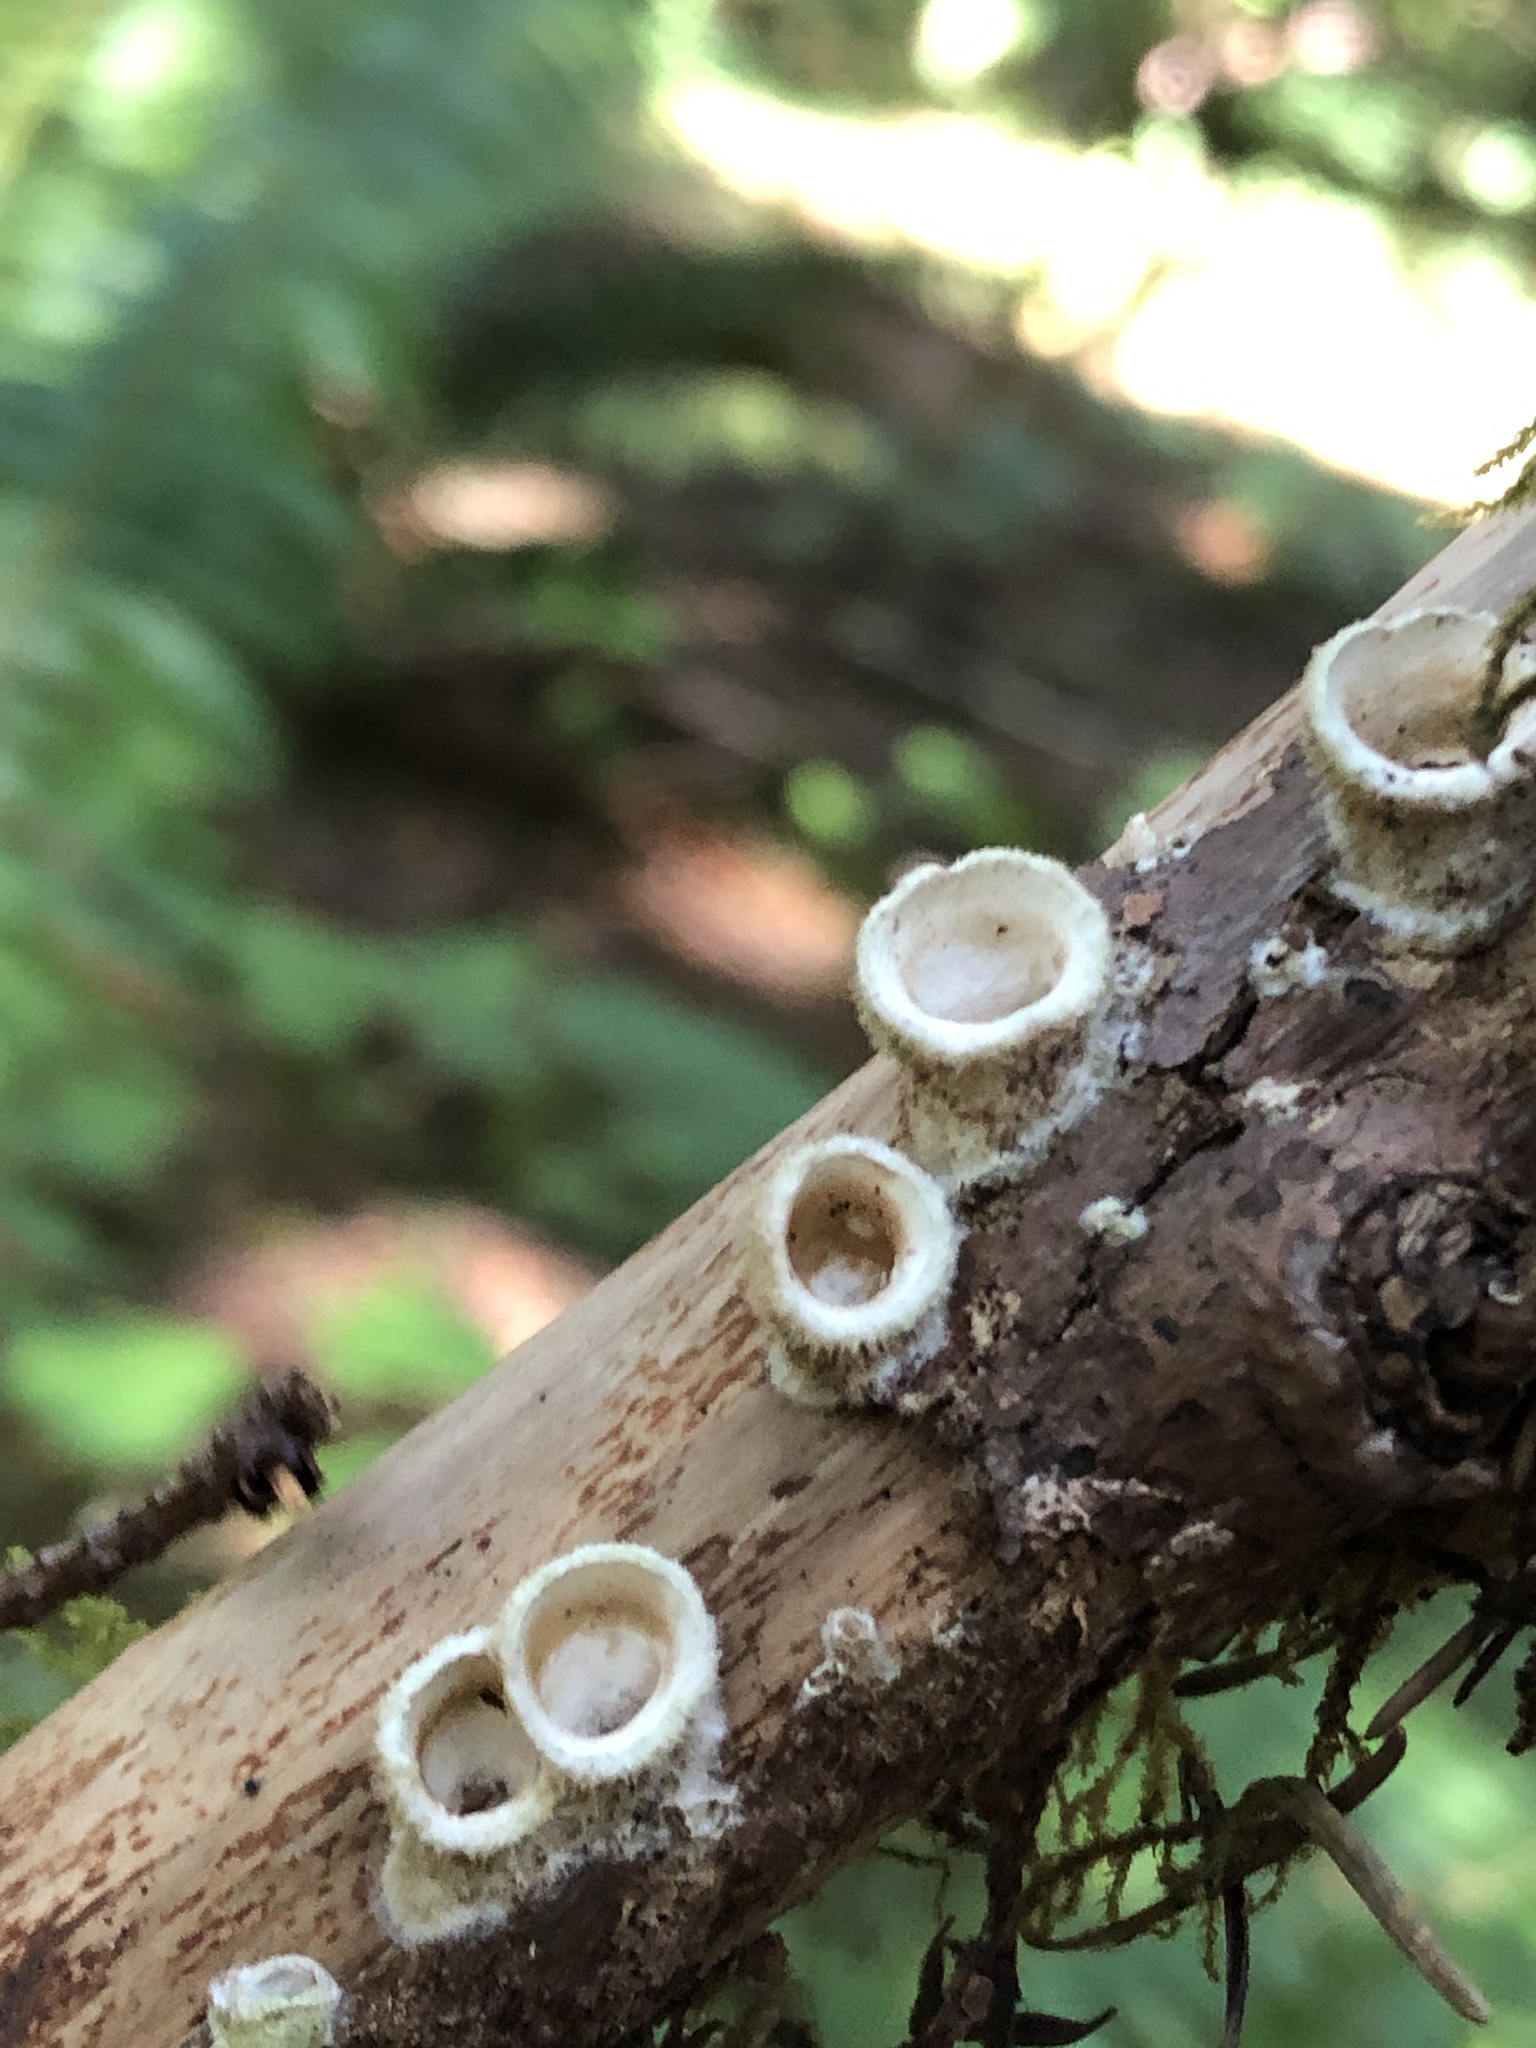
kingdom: Fungi
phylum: Basidiomycota
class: Agaricomycetes
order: Agaricales
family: Agaricaceae
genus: Nidula
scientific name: Nidula niveotomentosa
